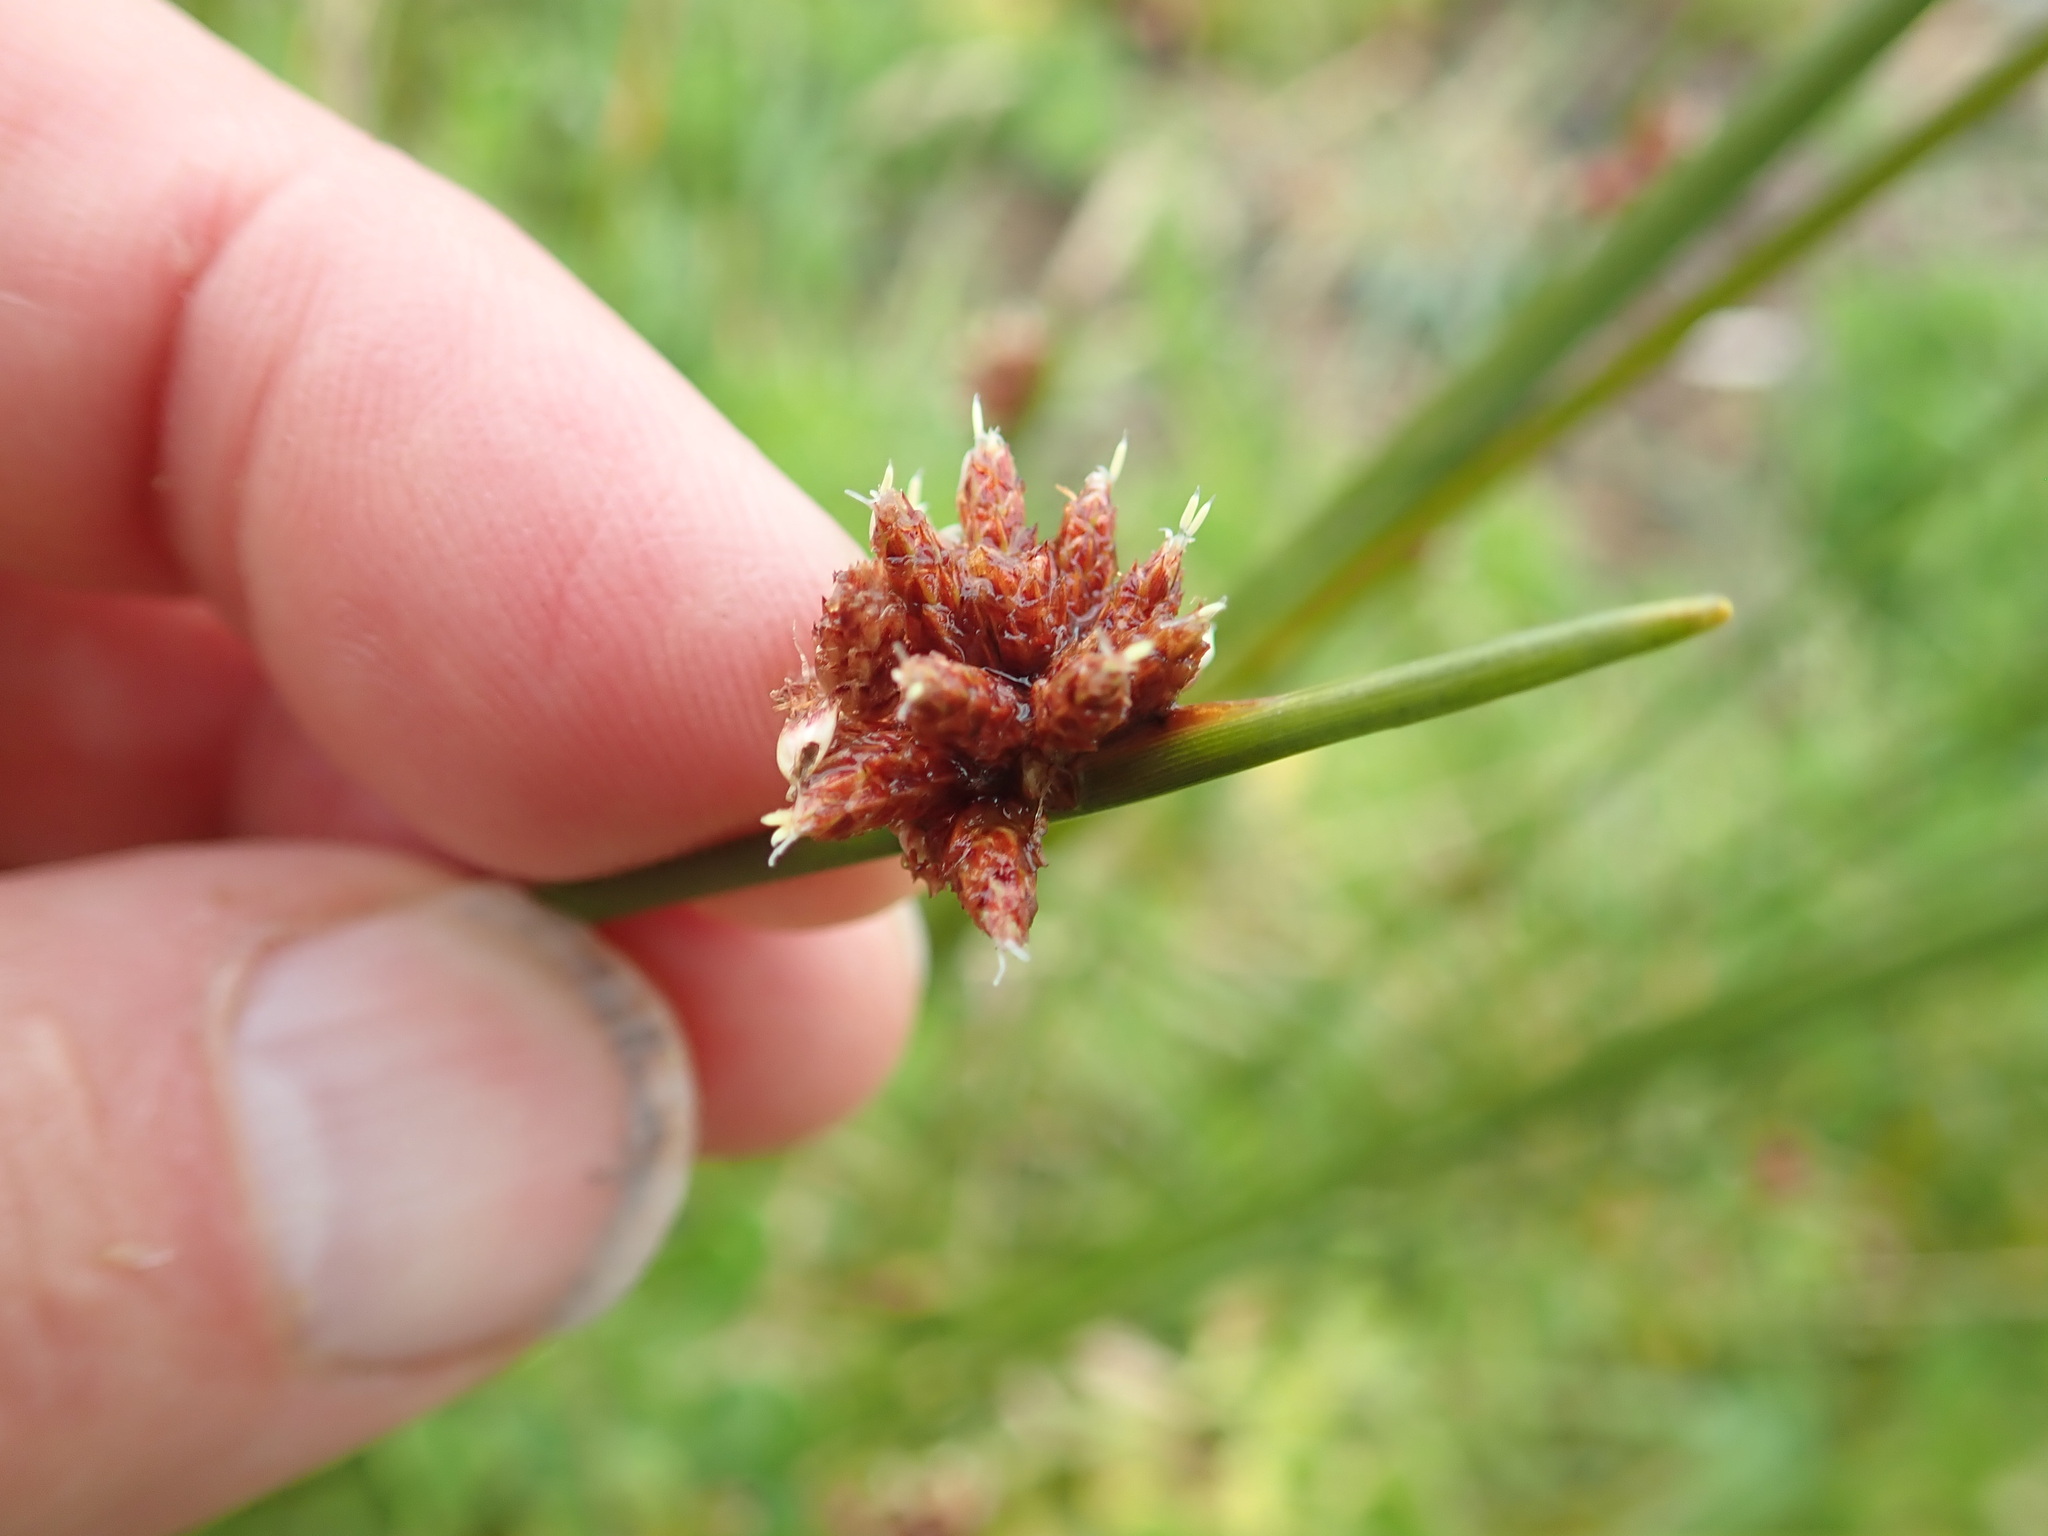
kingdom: Plantae
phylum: Tracheophyta
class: Liliopsida
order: Poales
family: Cyperaceae
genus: Ficinia
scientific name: Ficinia nodosa
